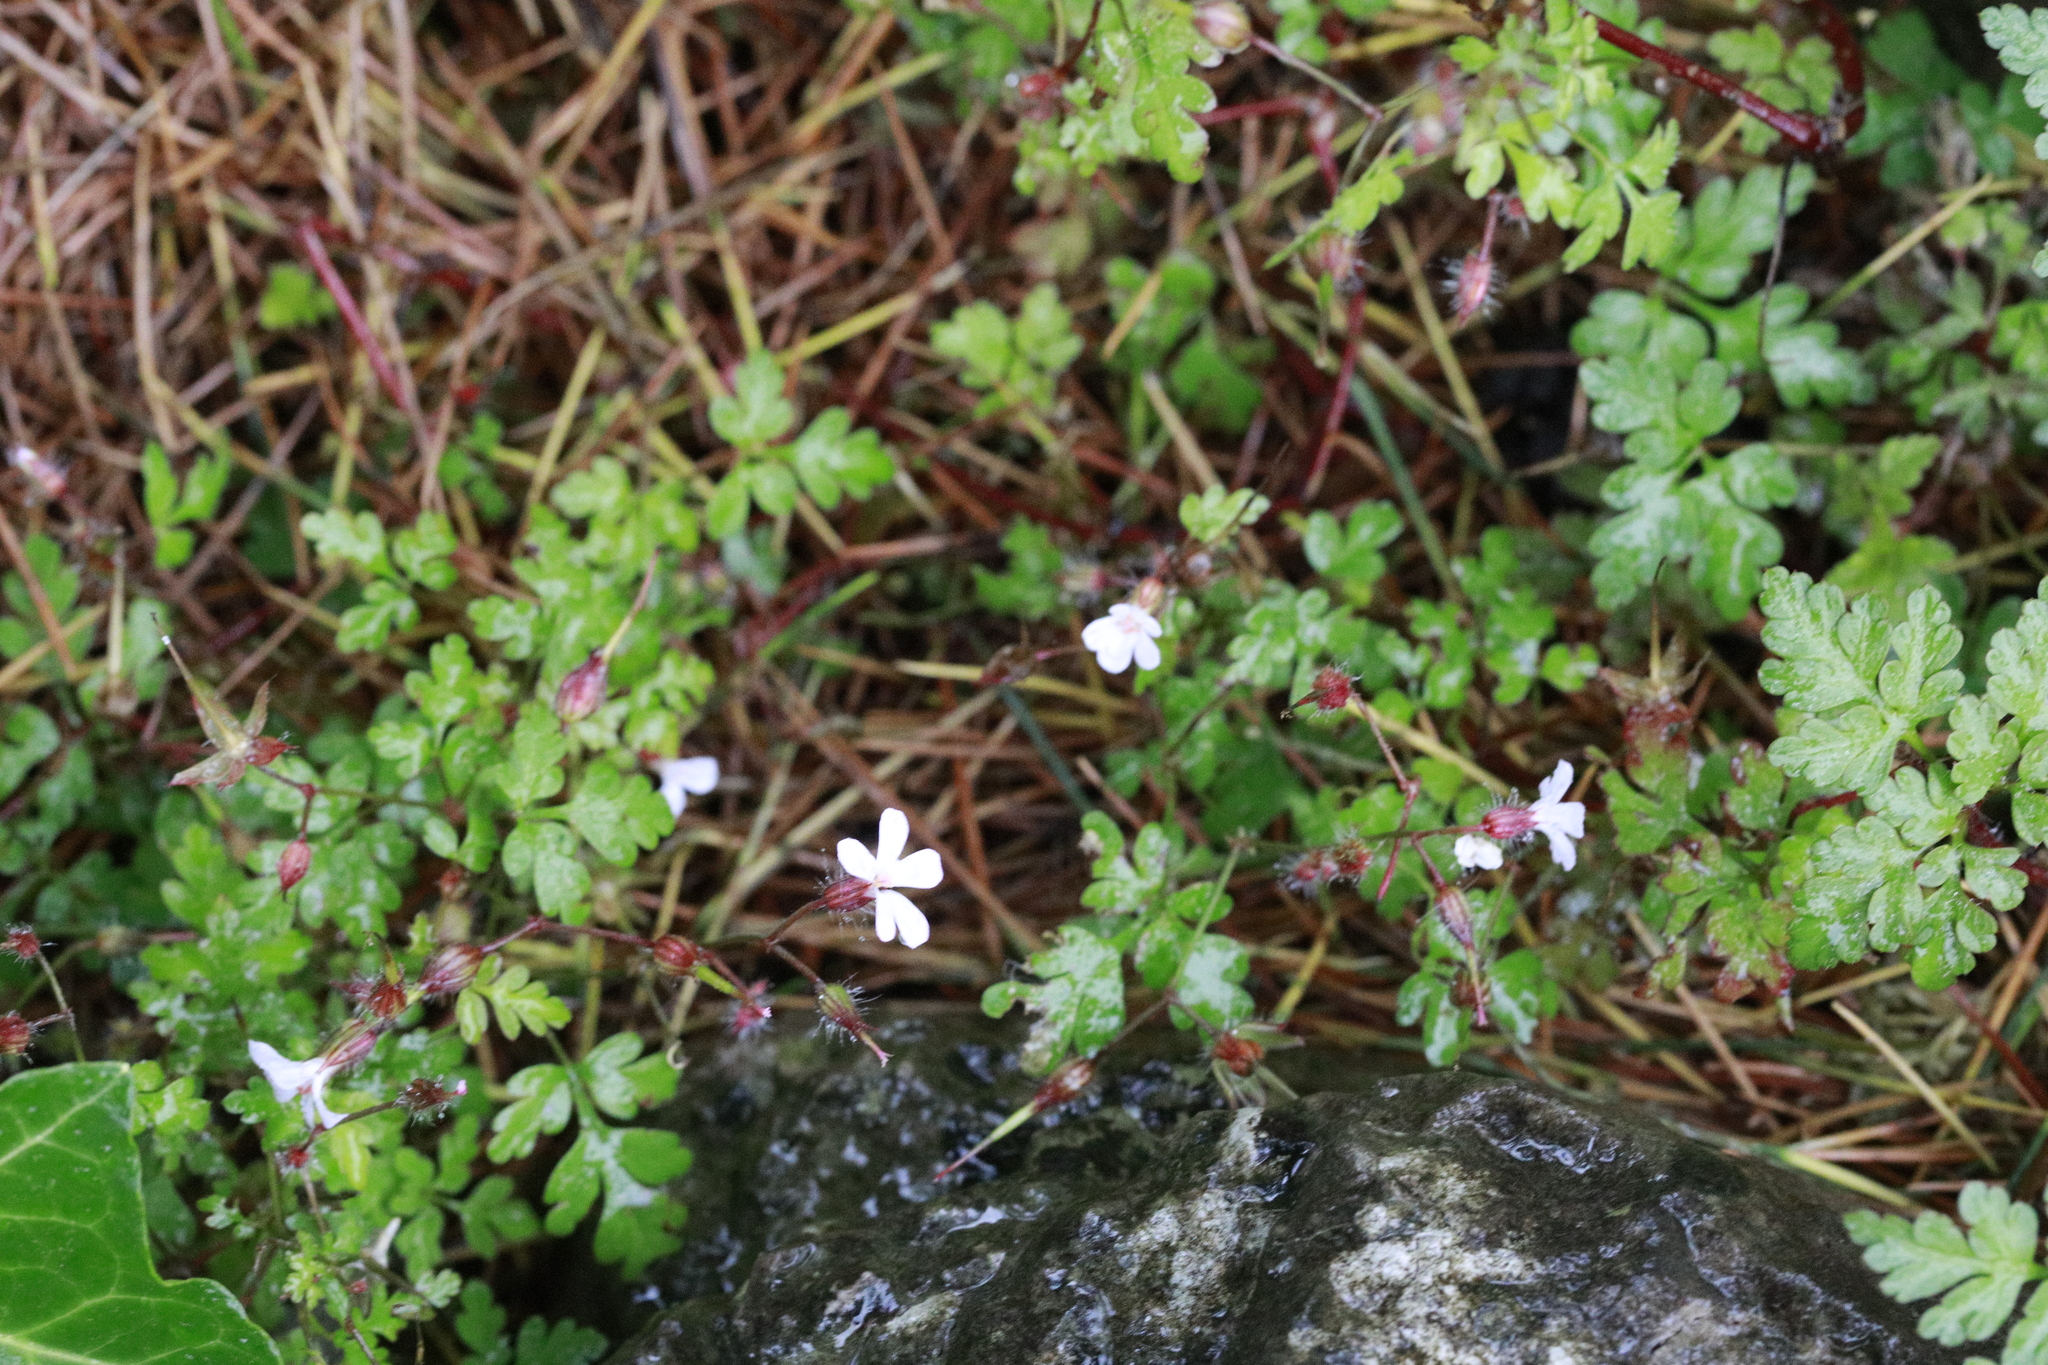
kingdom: Plantae
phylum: Tracheophyta
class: Magnoliopsida
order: Geraniales
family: Geraniaceae
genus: Geranium
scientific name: Geranium robertianum
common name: Herb-robert
